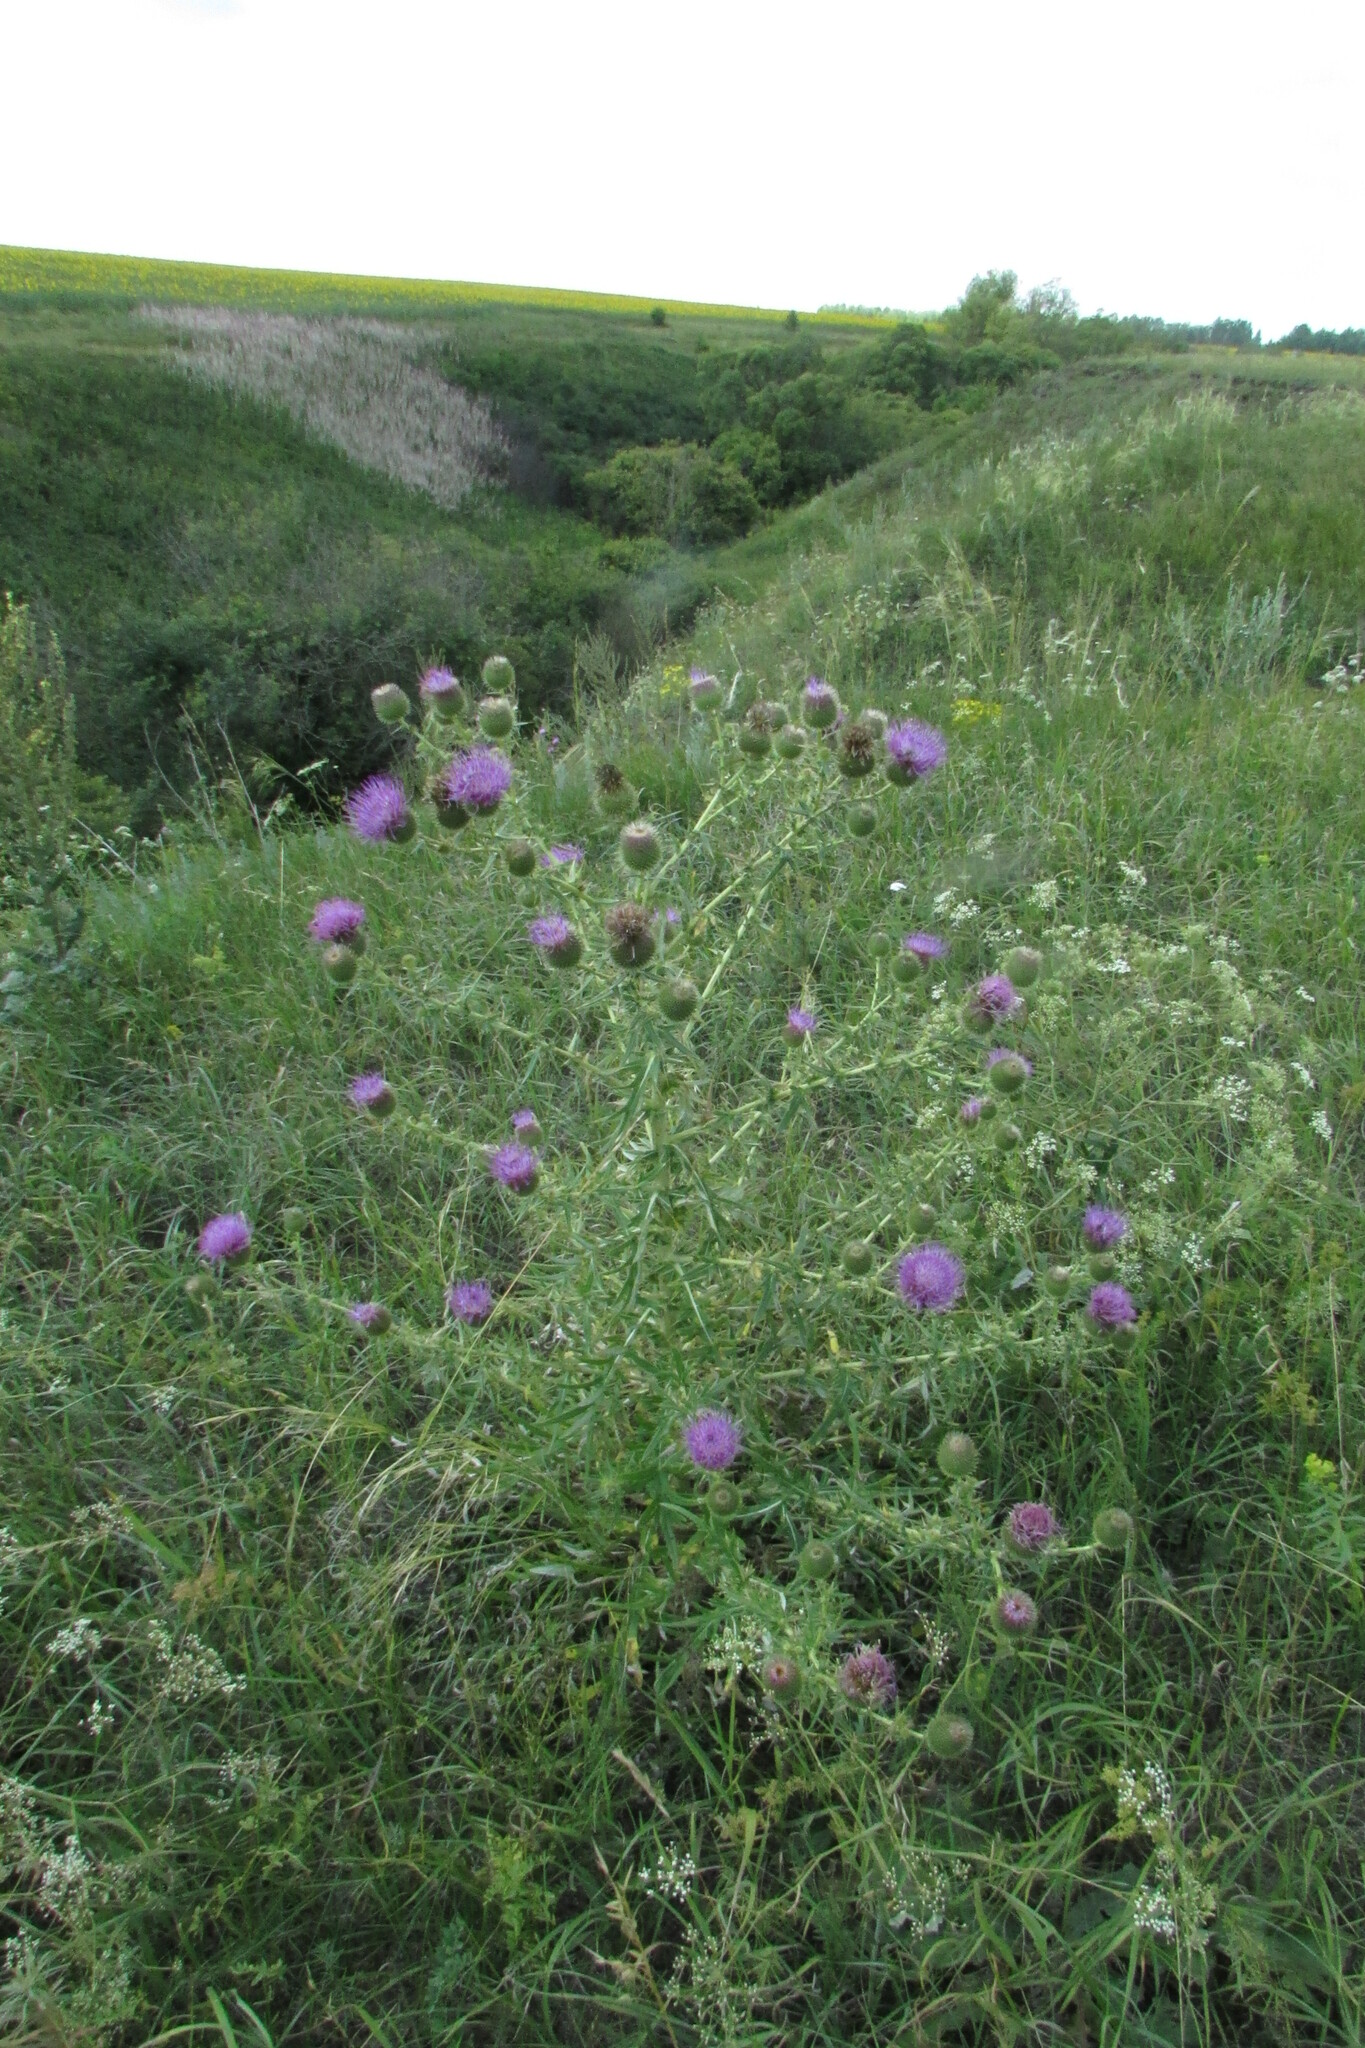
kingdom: Plantae
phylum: Tracheophyta
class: Magnoliopsida
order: Asterales
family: Asteraceae
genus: Cirsium
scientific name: Cirsium serrulatum
